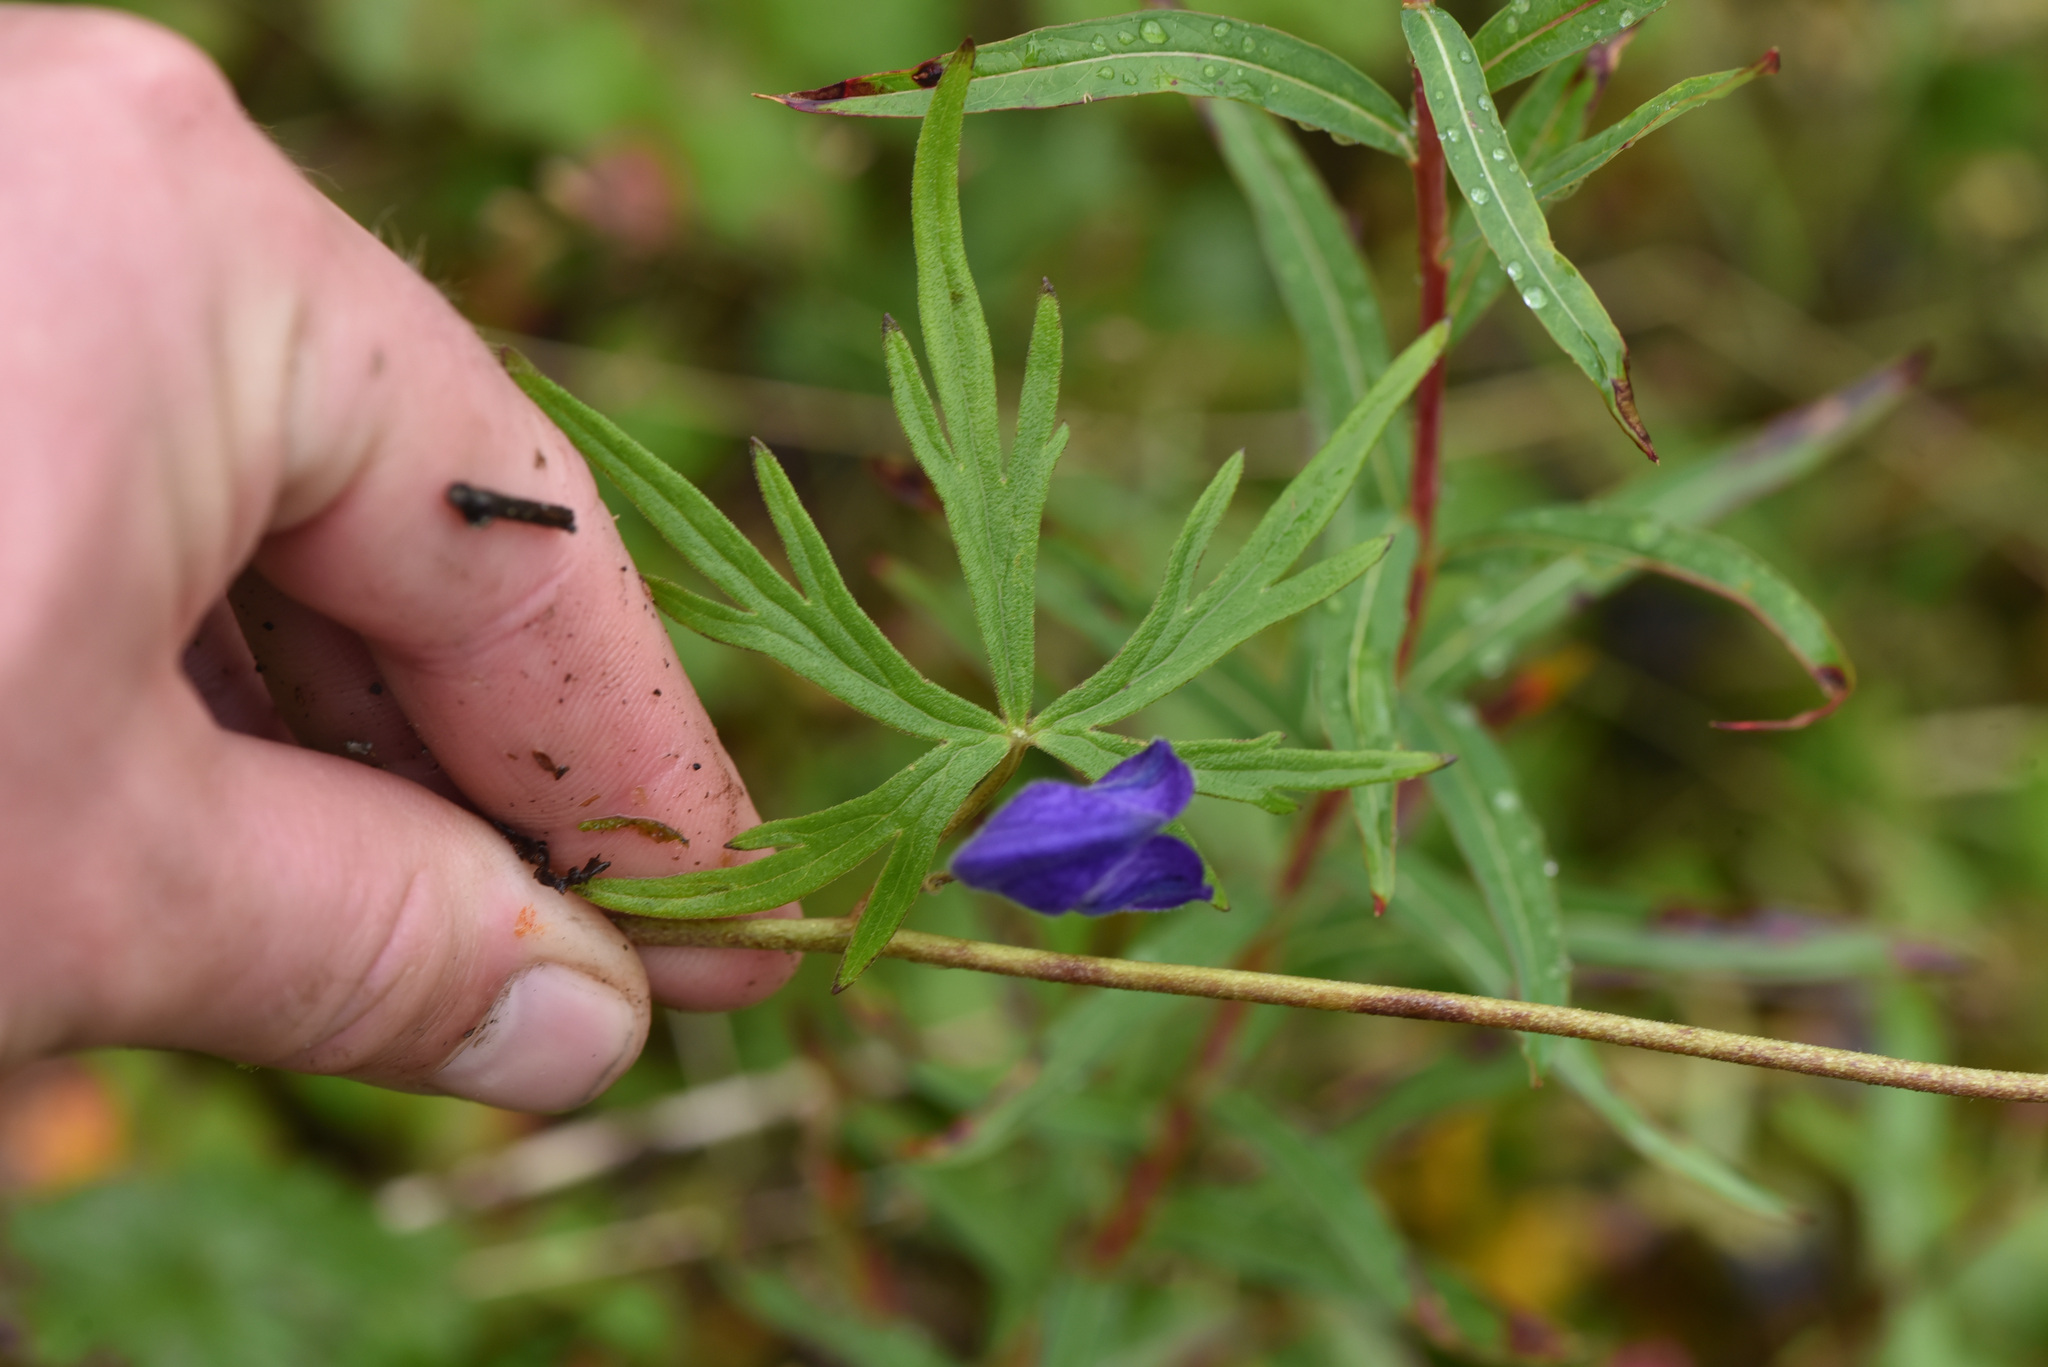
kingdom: Plantae
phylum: Tracheophyta
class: Magnoliopsida
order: Ranunculales
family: Ranunculaceae
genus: Aconitum
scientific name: Aconitum delphiniifolium
